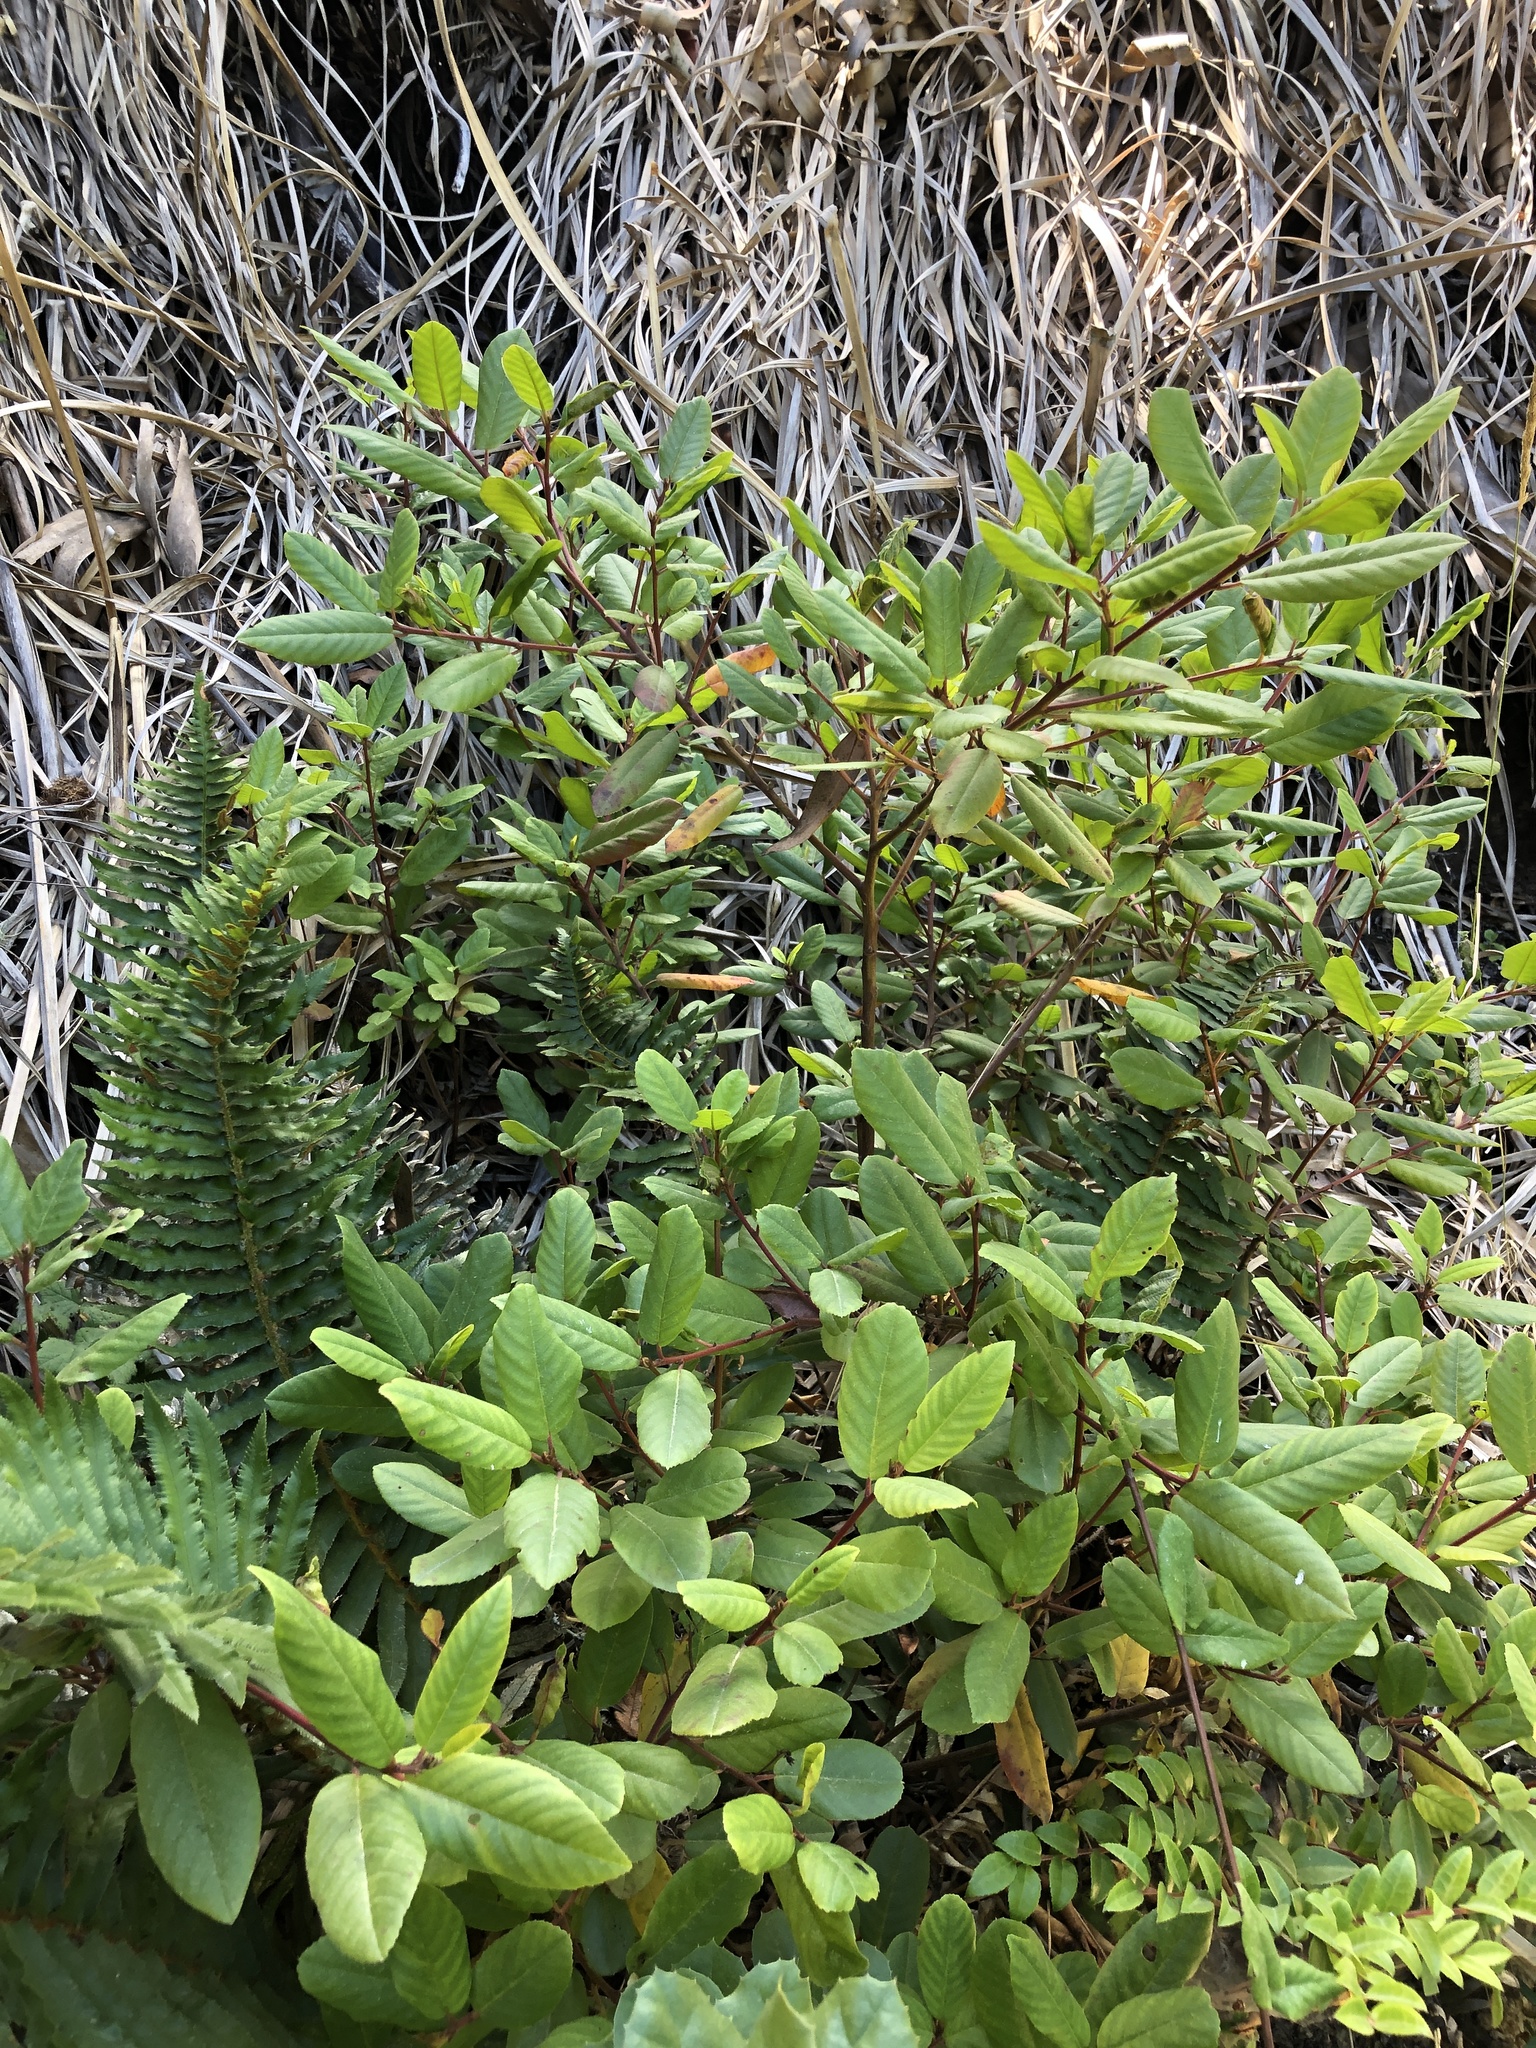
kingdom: Plantae
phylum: Tracheophyta
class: Magnoliopsida
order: Rosales
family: Rhamnaceae
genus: Frangula
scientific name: Frangula californica
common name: California buckthorn
